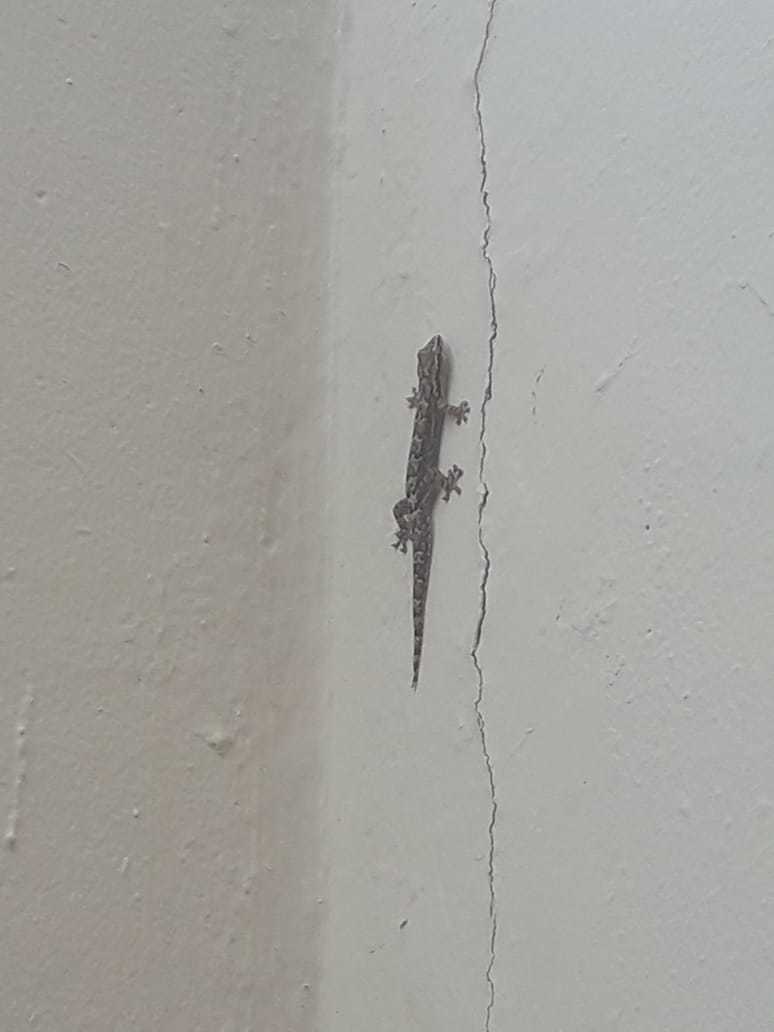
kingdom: Animalia
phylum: Chordata
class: Squamata
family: Gekkonidae
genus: Lepidodactylus
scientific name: Lepidodactylus lugubris
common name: Mourning gecko
